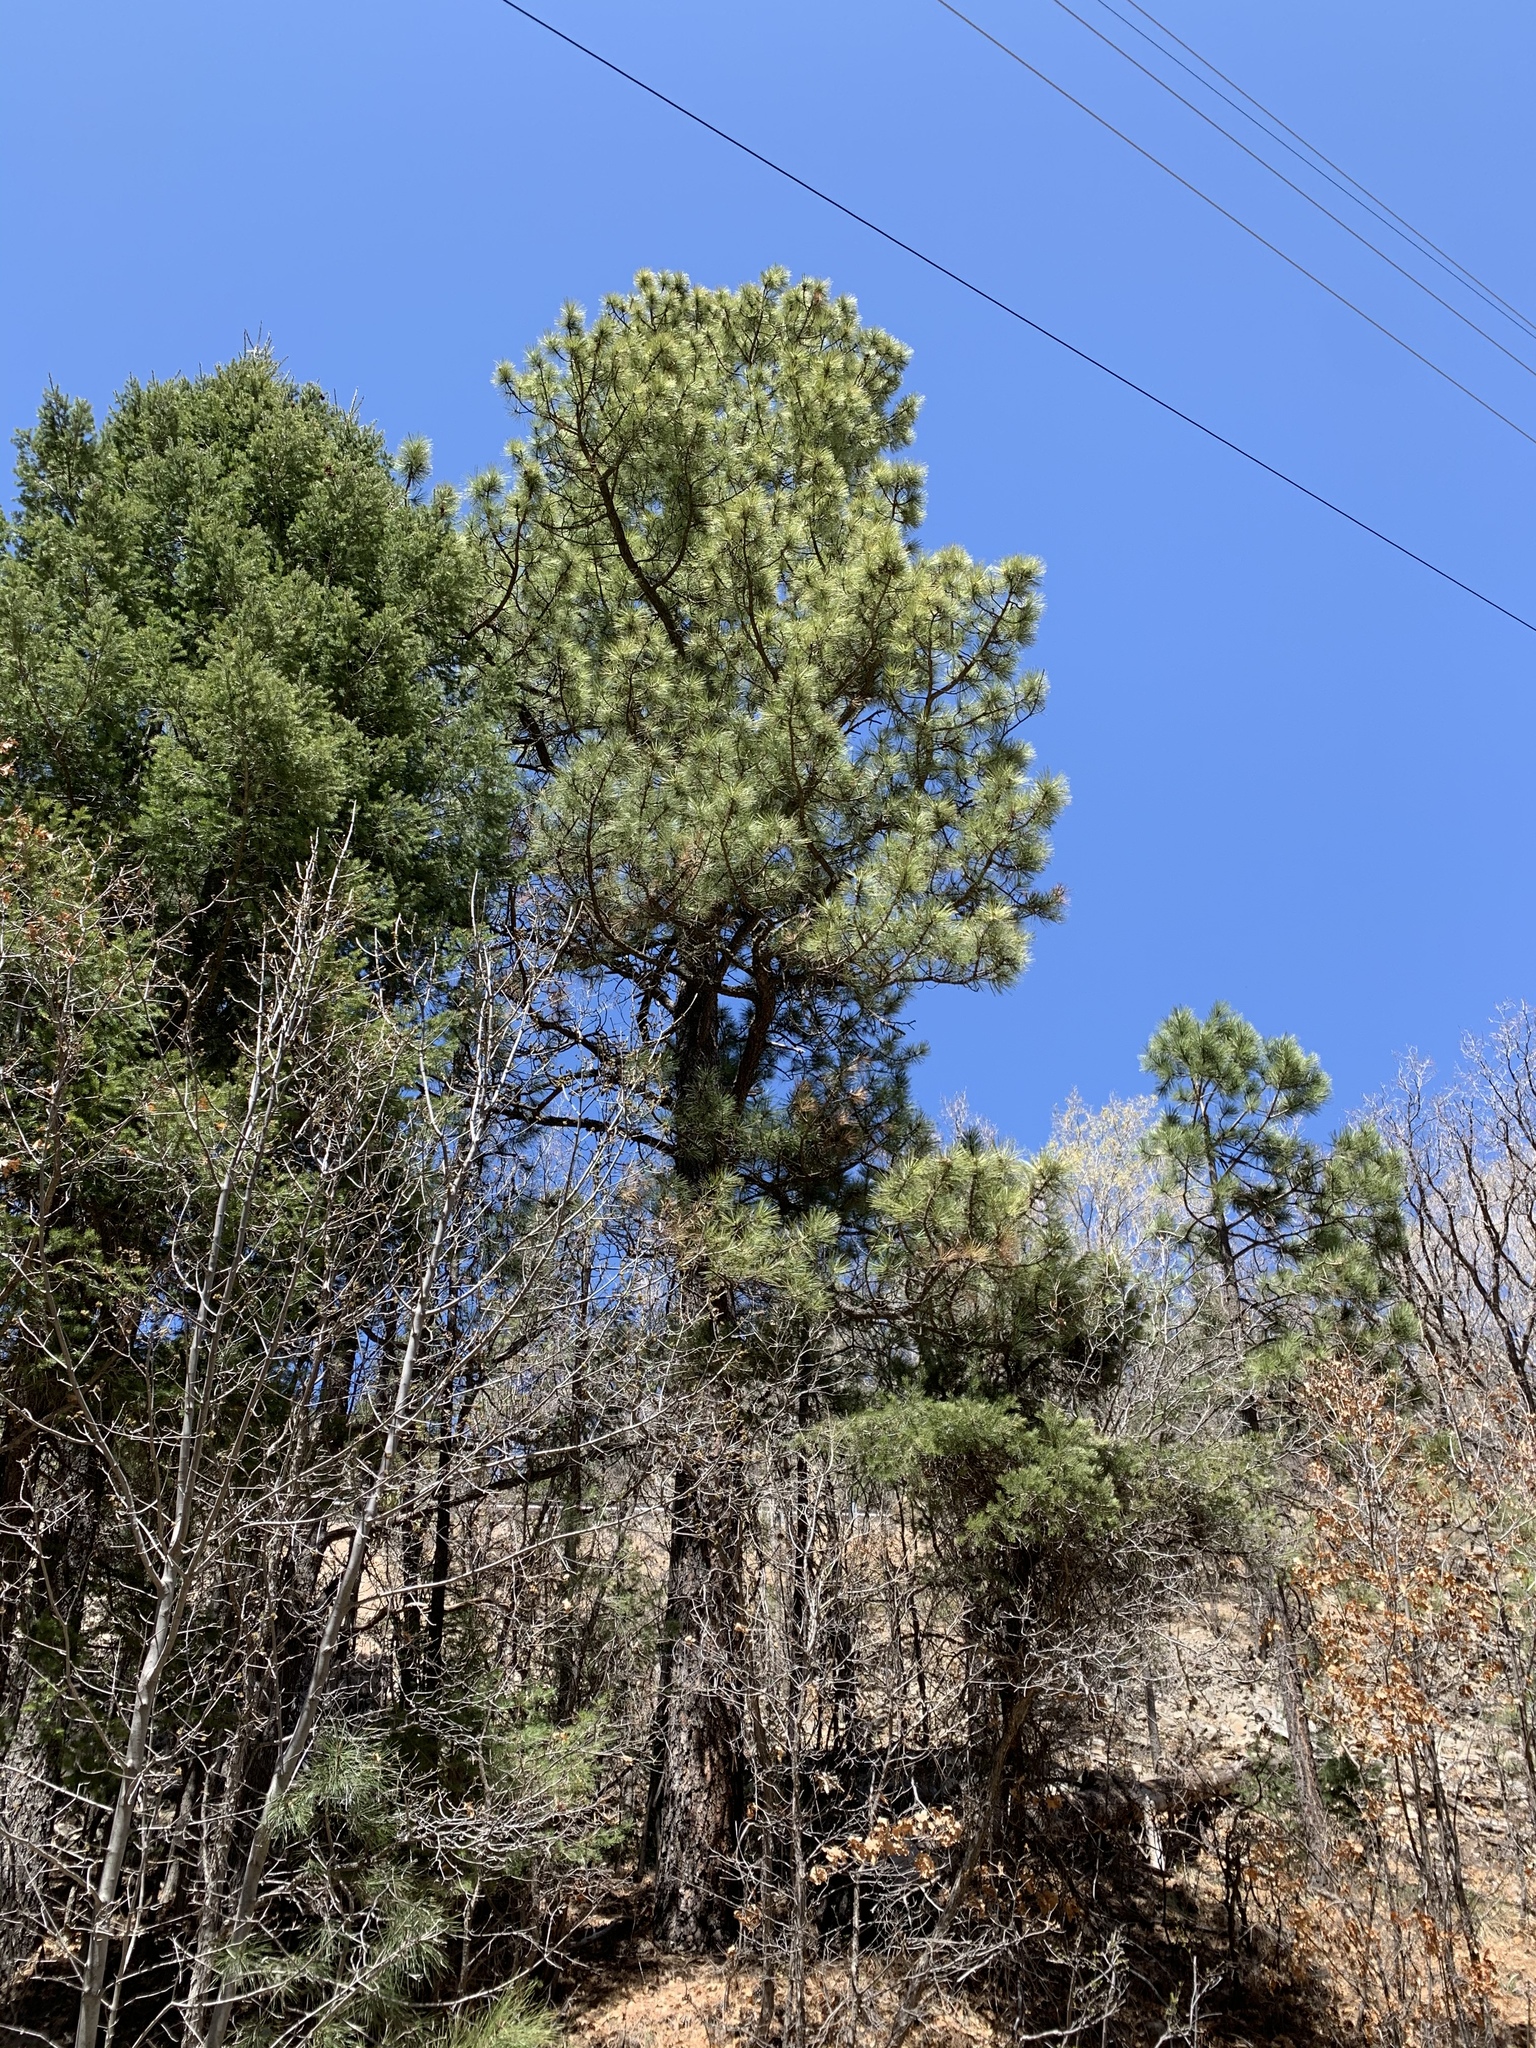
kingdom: Plantae
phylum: Tracheophyta
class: Pinopsida
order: Pinales
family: Pinaceae
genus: Pinus
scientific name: Pinus ponderosa
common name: Western yellow-pine
